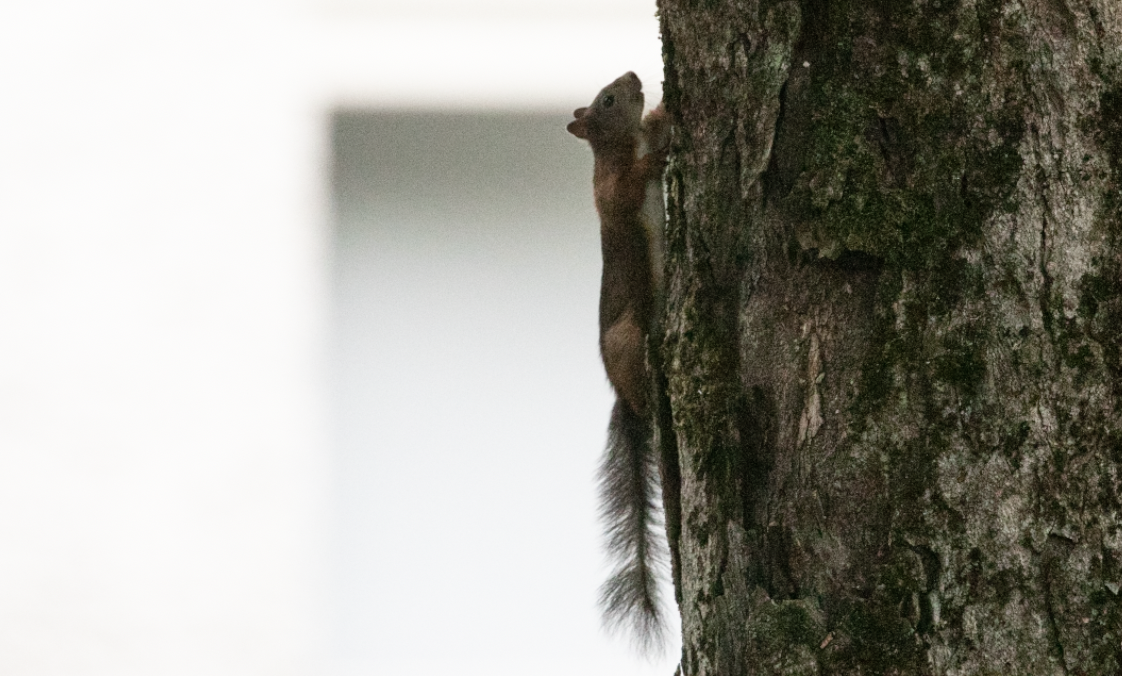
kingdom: Animalia
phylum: Chordata
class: Mammalia
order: Rodentia
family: Sciuridae
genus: Sciurus
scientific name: Sciurus vulgaris
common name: Eurasian red squirrel
